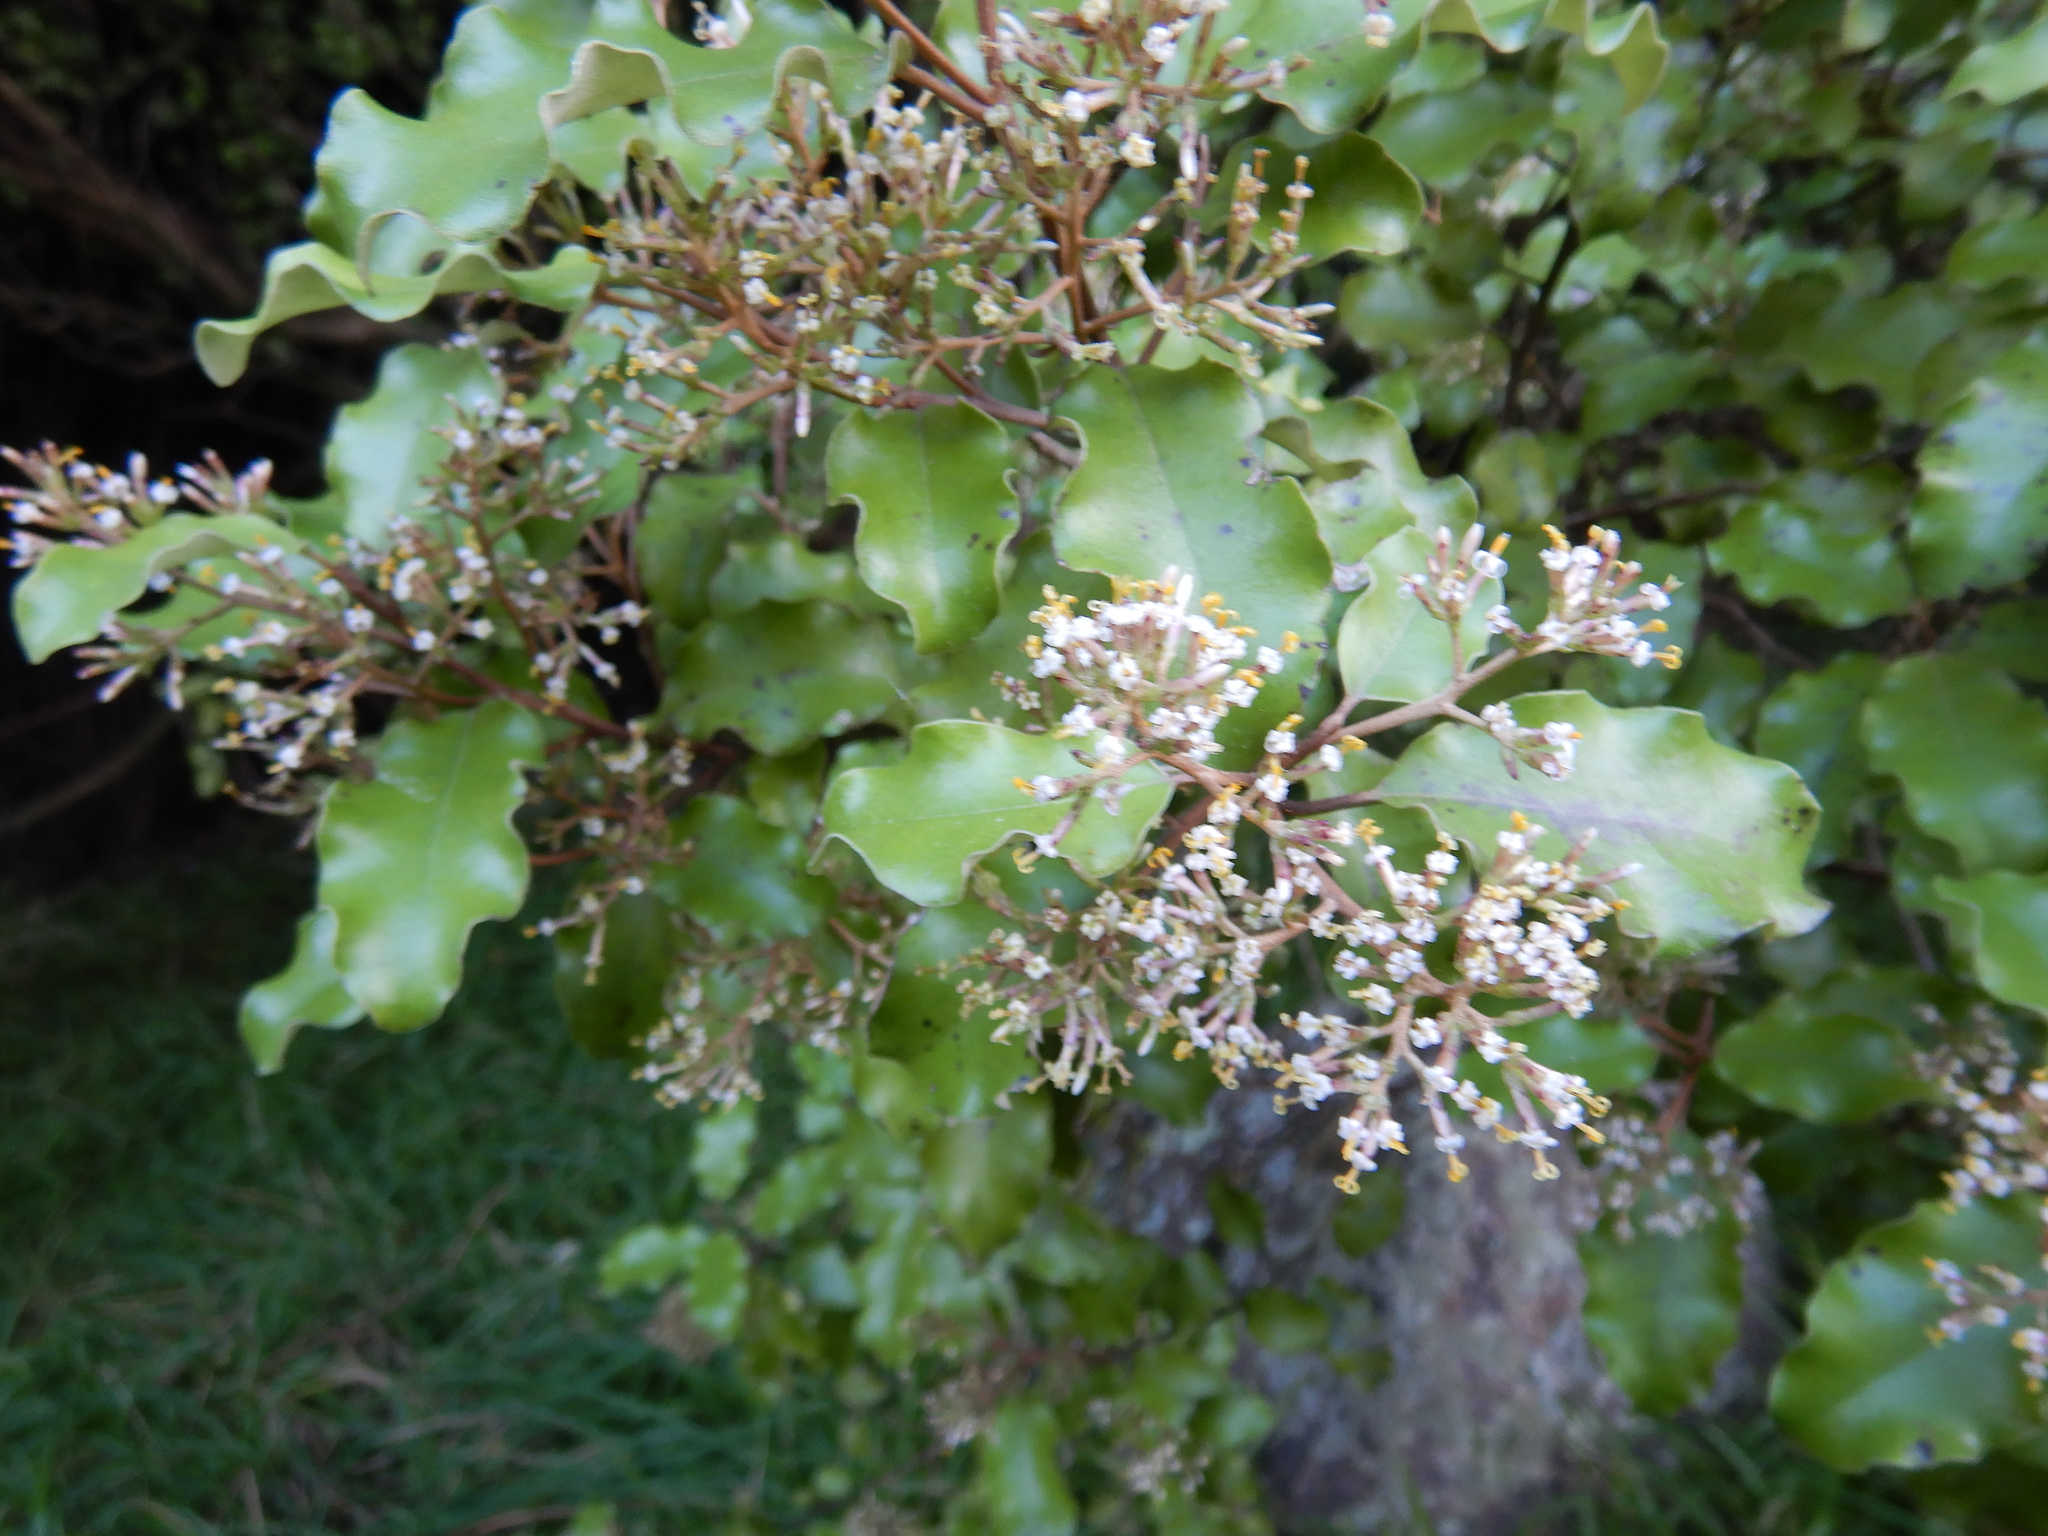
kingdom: Plantae
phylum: Tracheophyta
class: Magnoliopsida
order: Asterales
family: Asteraceae
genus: Olearia
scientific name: Olearia paniculata
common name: Akiraho
